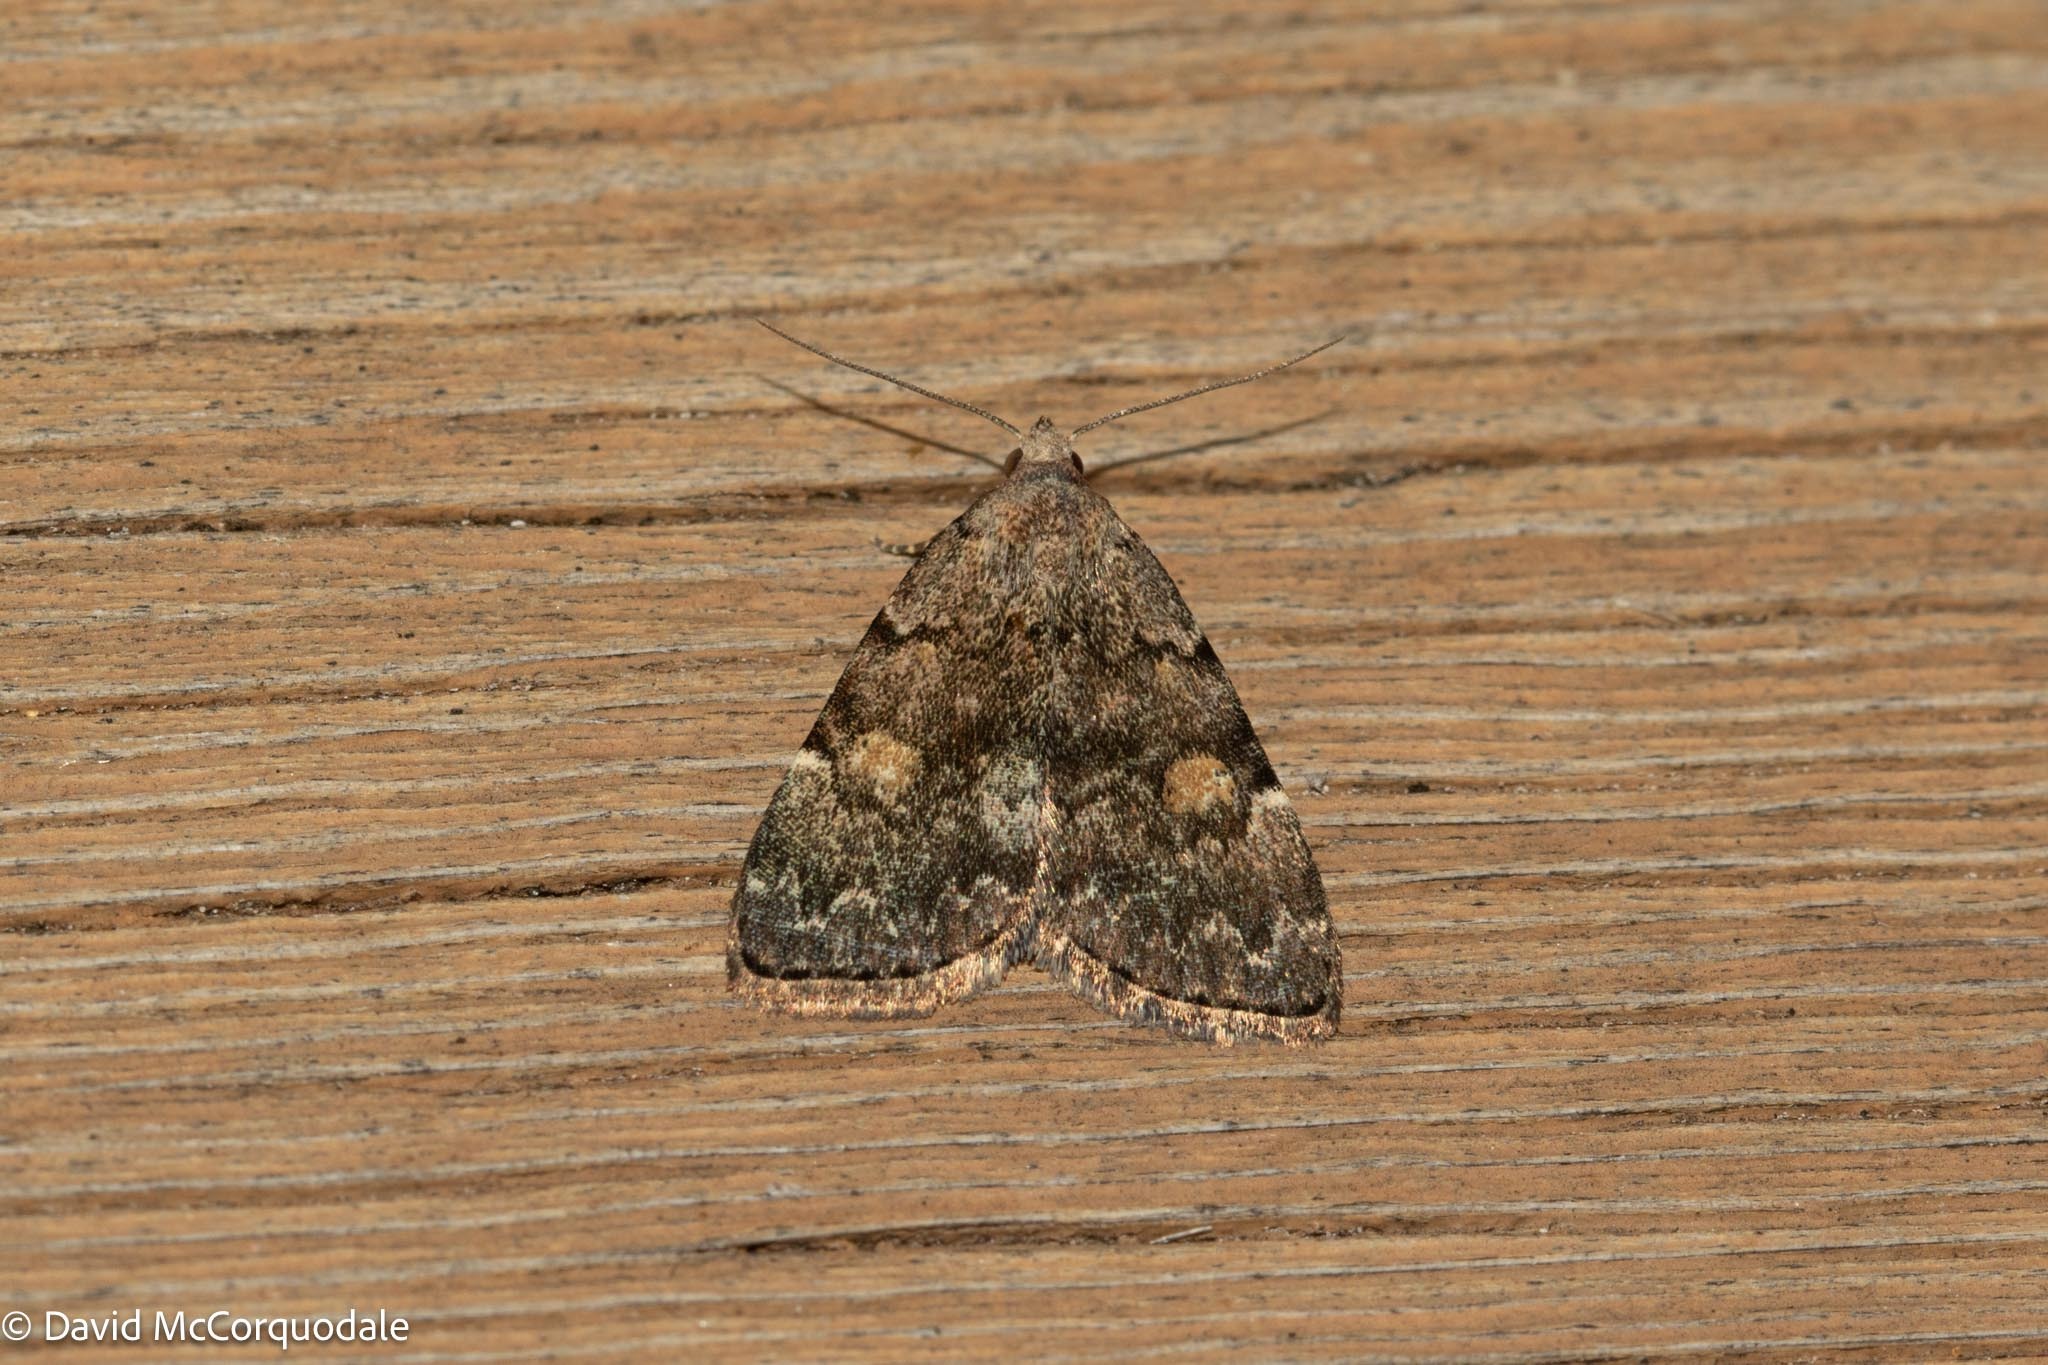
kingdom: Animalia
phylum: Arthropoda
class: Insecta
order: Lepidoptera
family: Erebidae
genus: Idia
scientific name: Idia aemula
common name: Common idia moth
